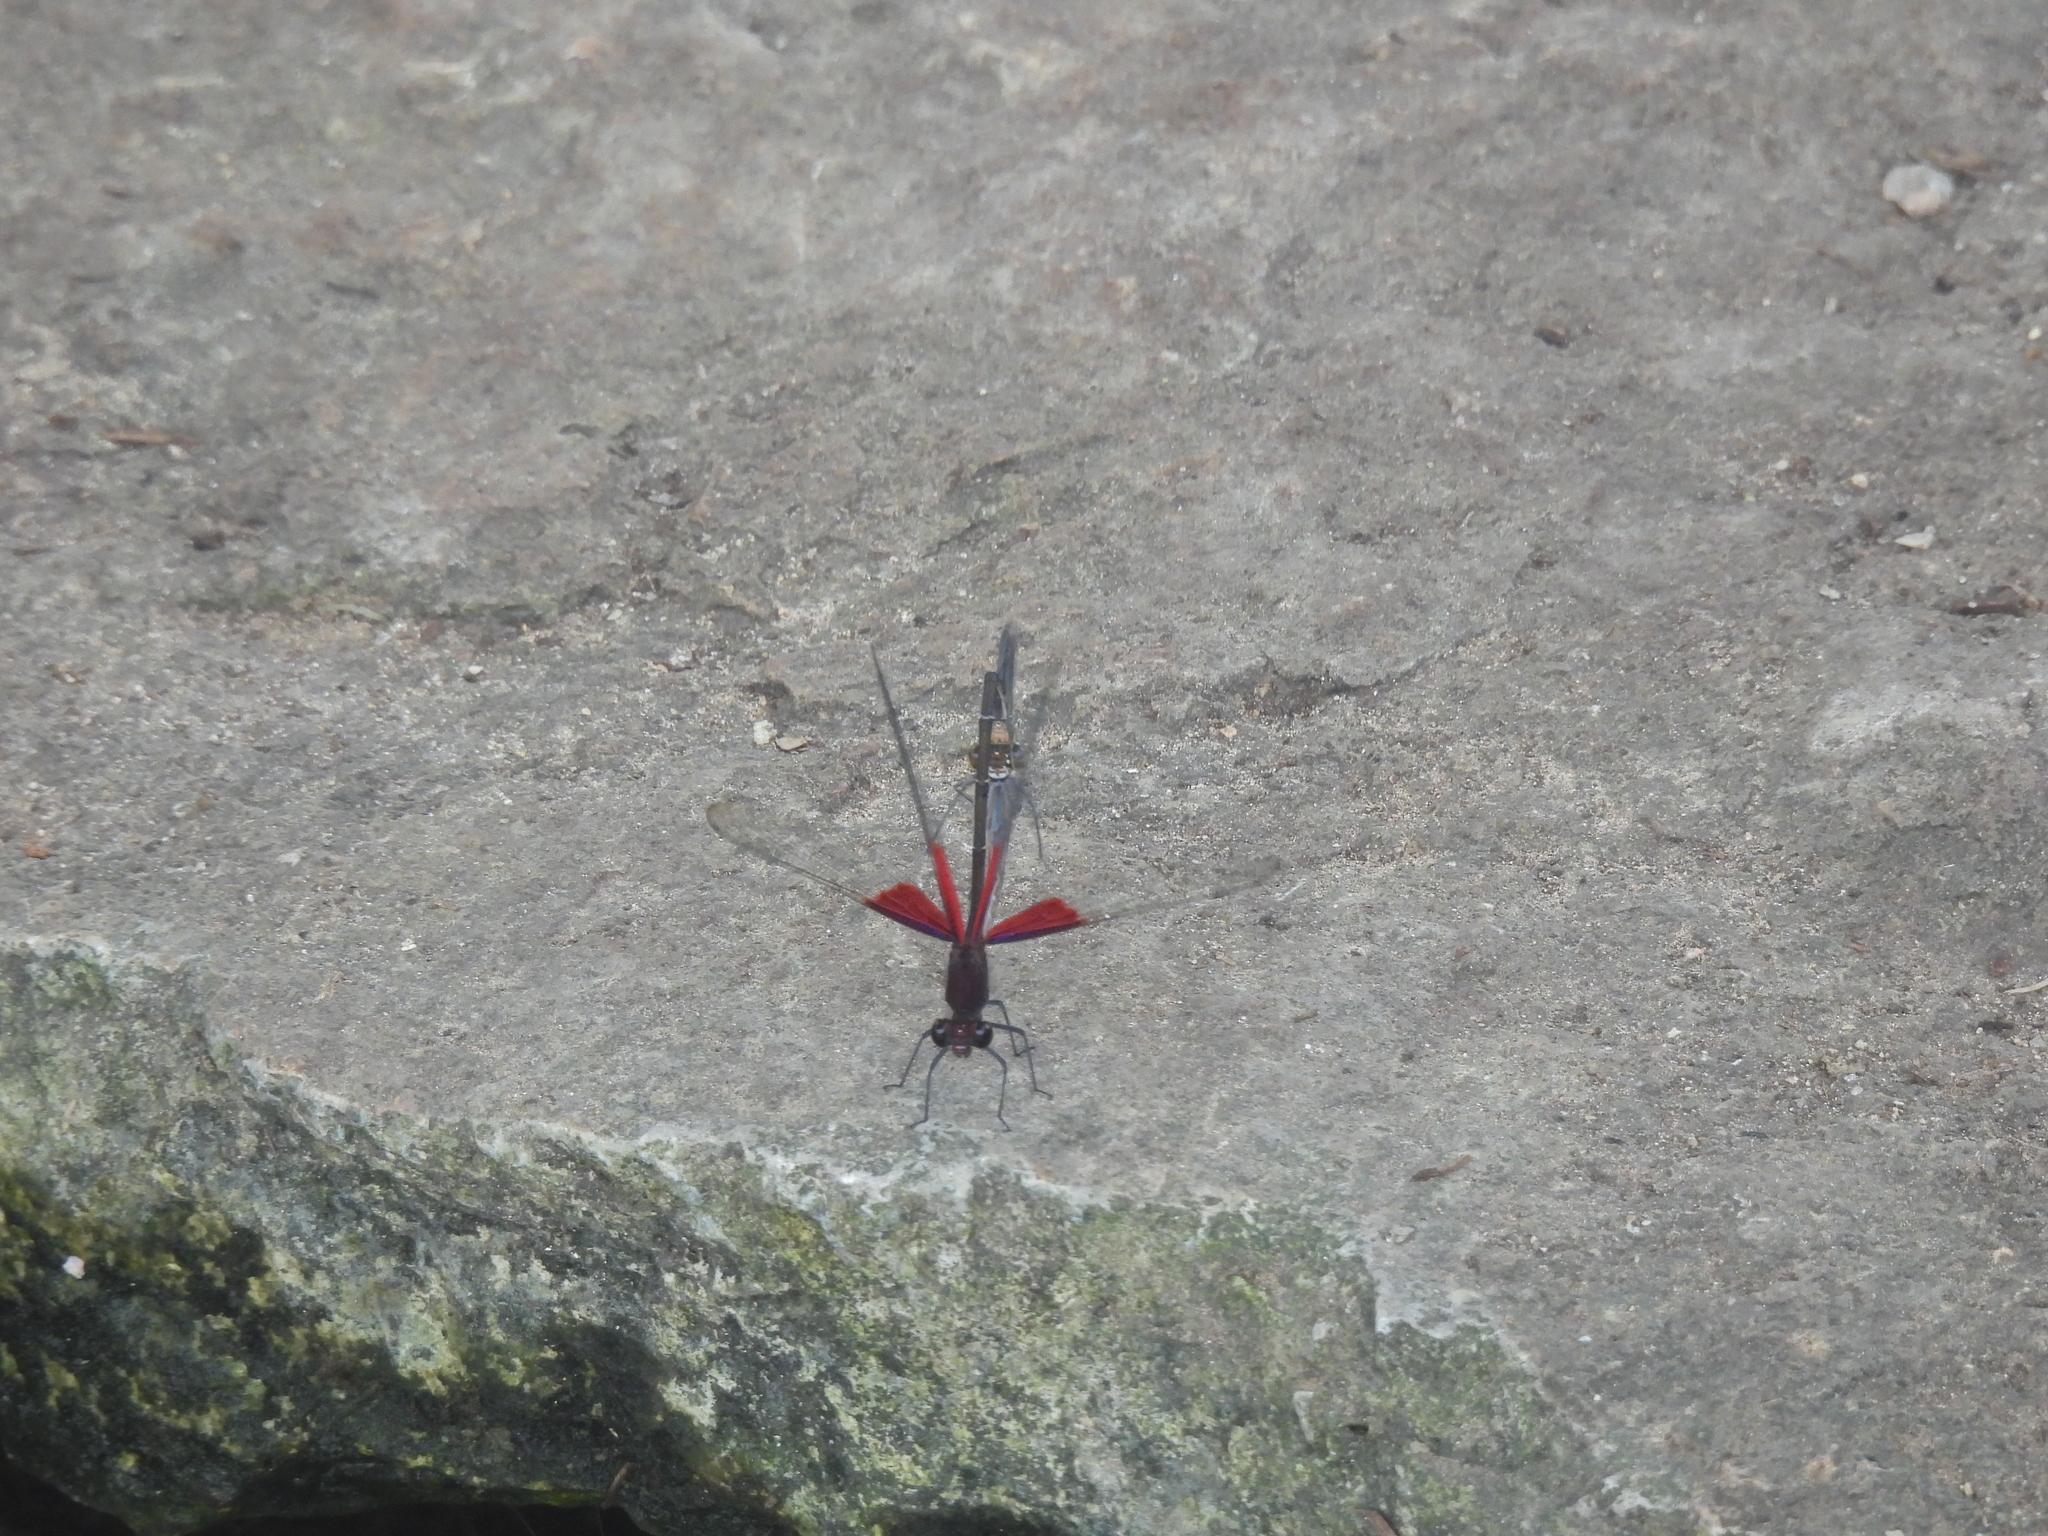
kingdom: Animalia
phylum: Arthropoda
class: Insecta
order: Odonata
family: Calopterygidae
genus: Hetaerina
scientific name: Hetaerina americana
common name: American rubyspot
